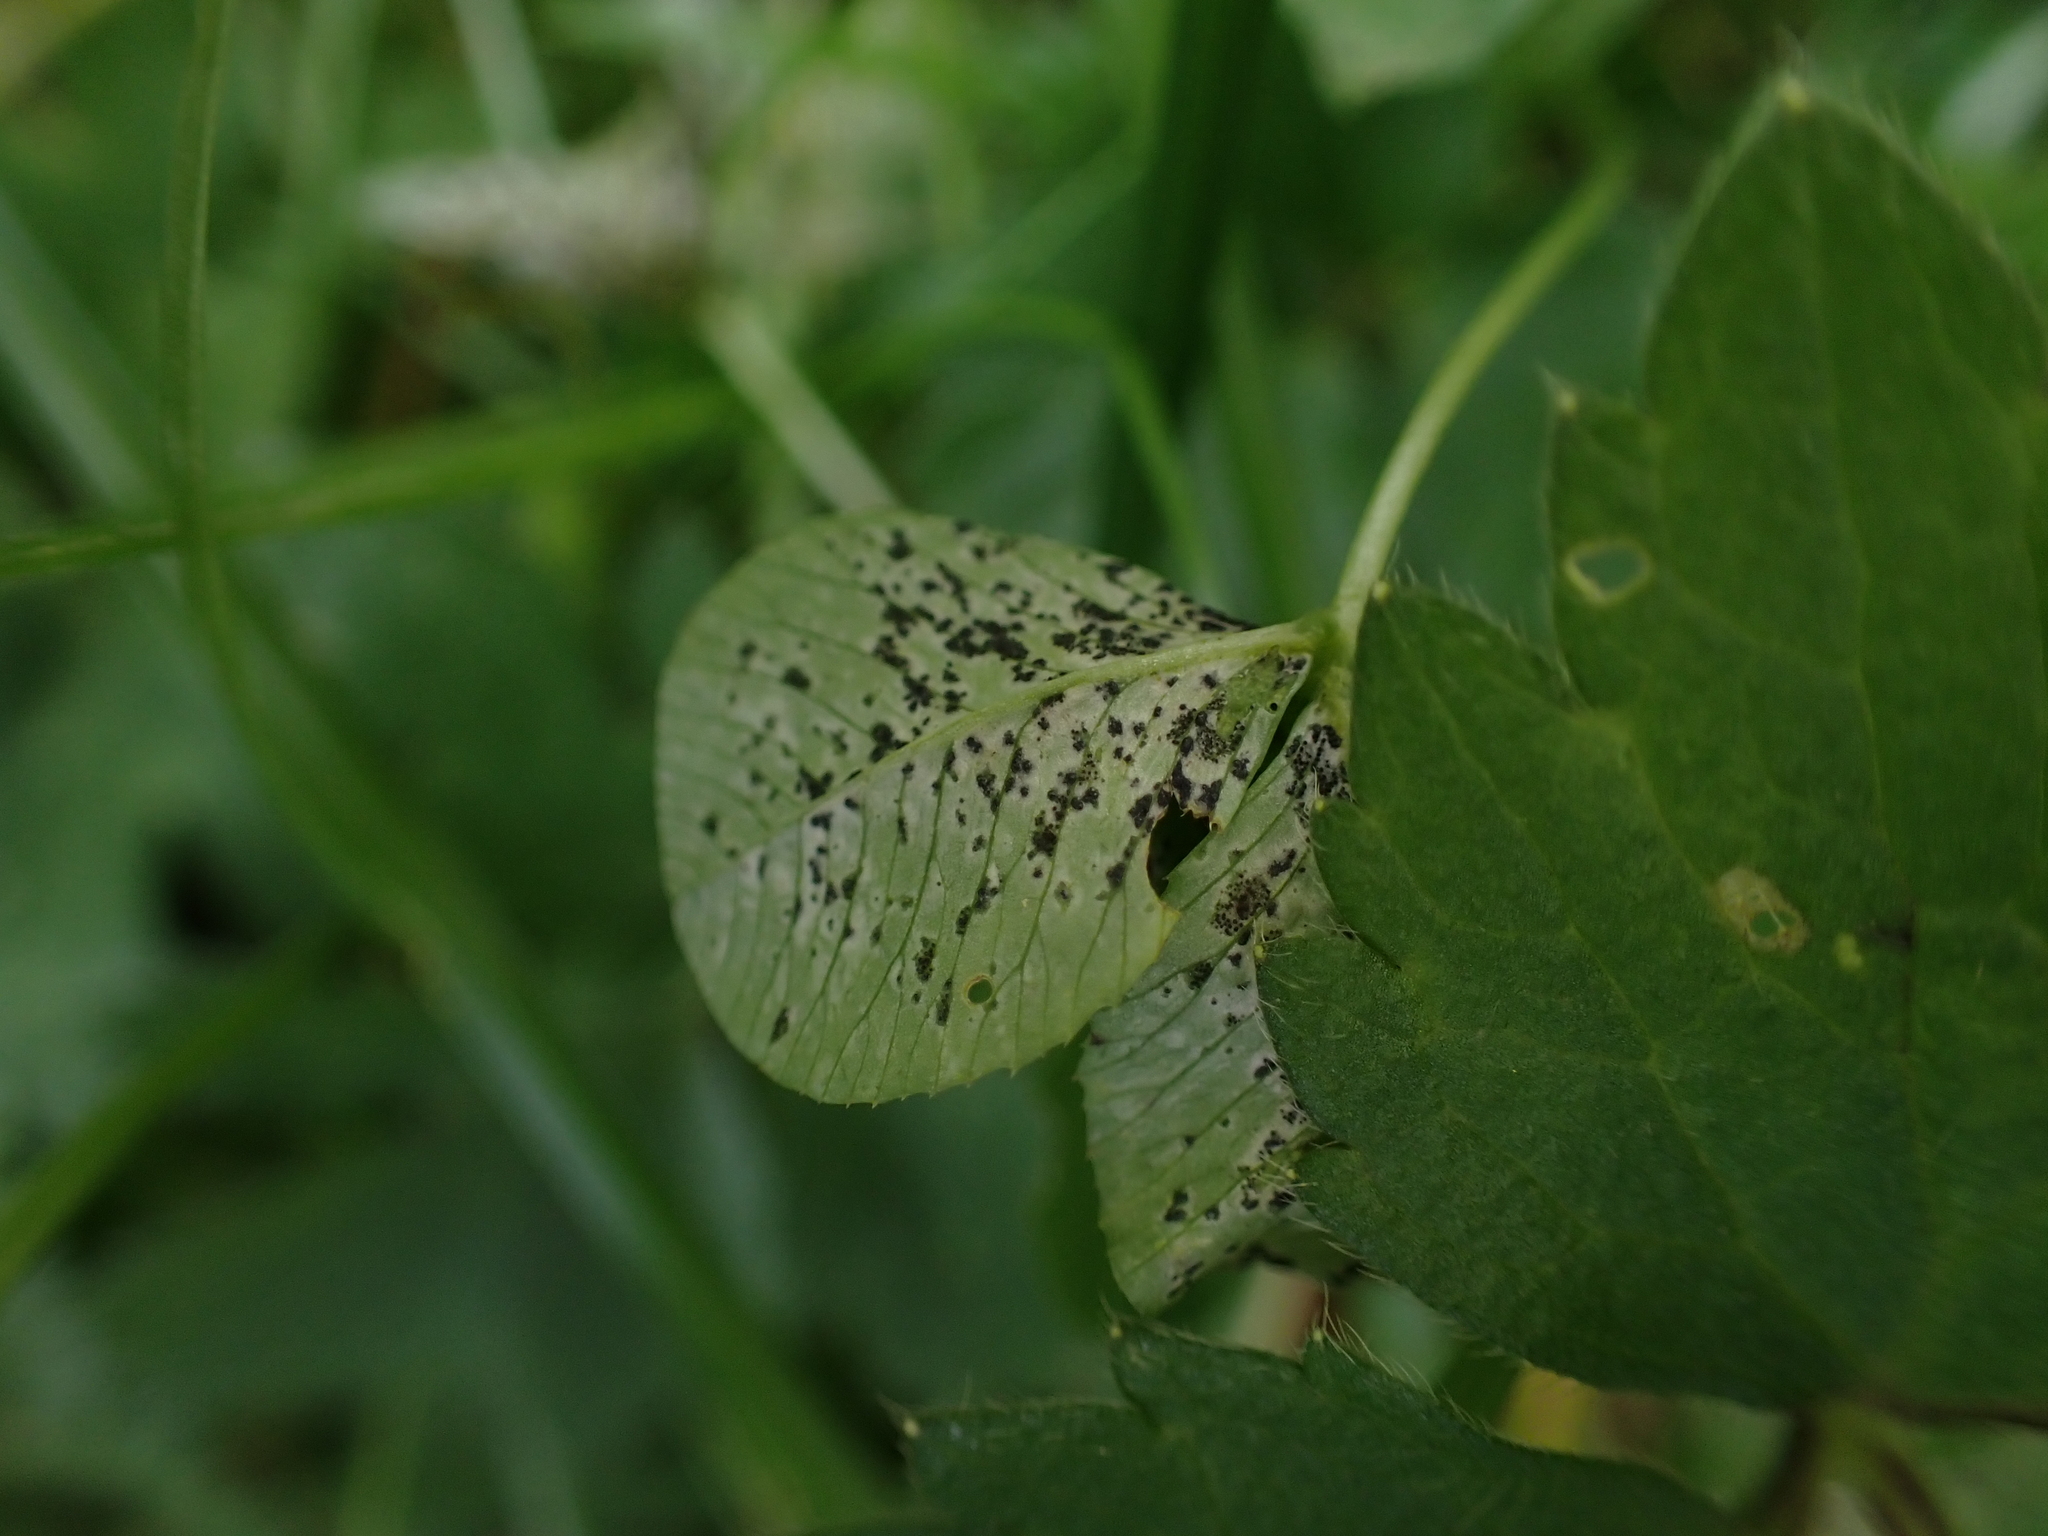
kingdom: Fungi
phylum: Ascomycota
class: Dothideomycetes
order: Mycosphaerellales
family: Mycosphaerellaceae
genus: Polythrincium
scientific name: Polythrincium trifolii
